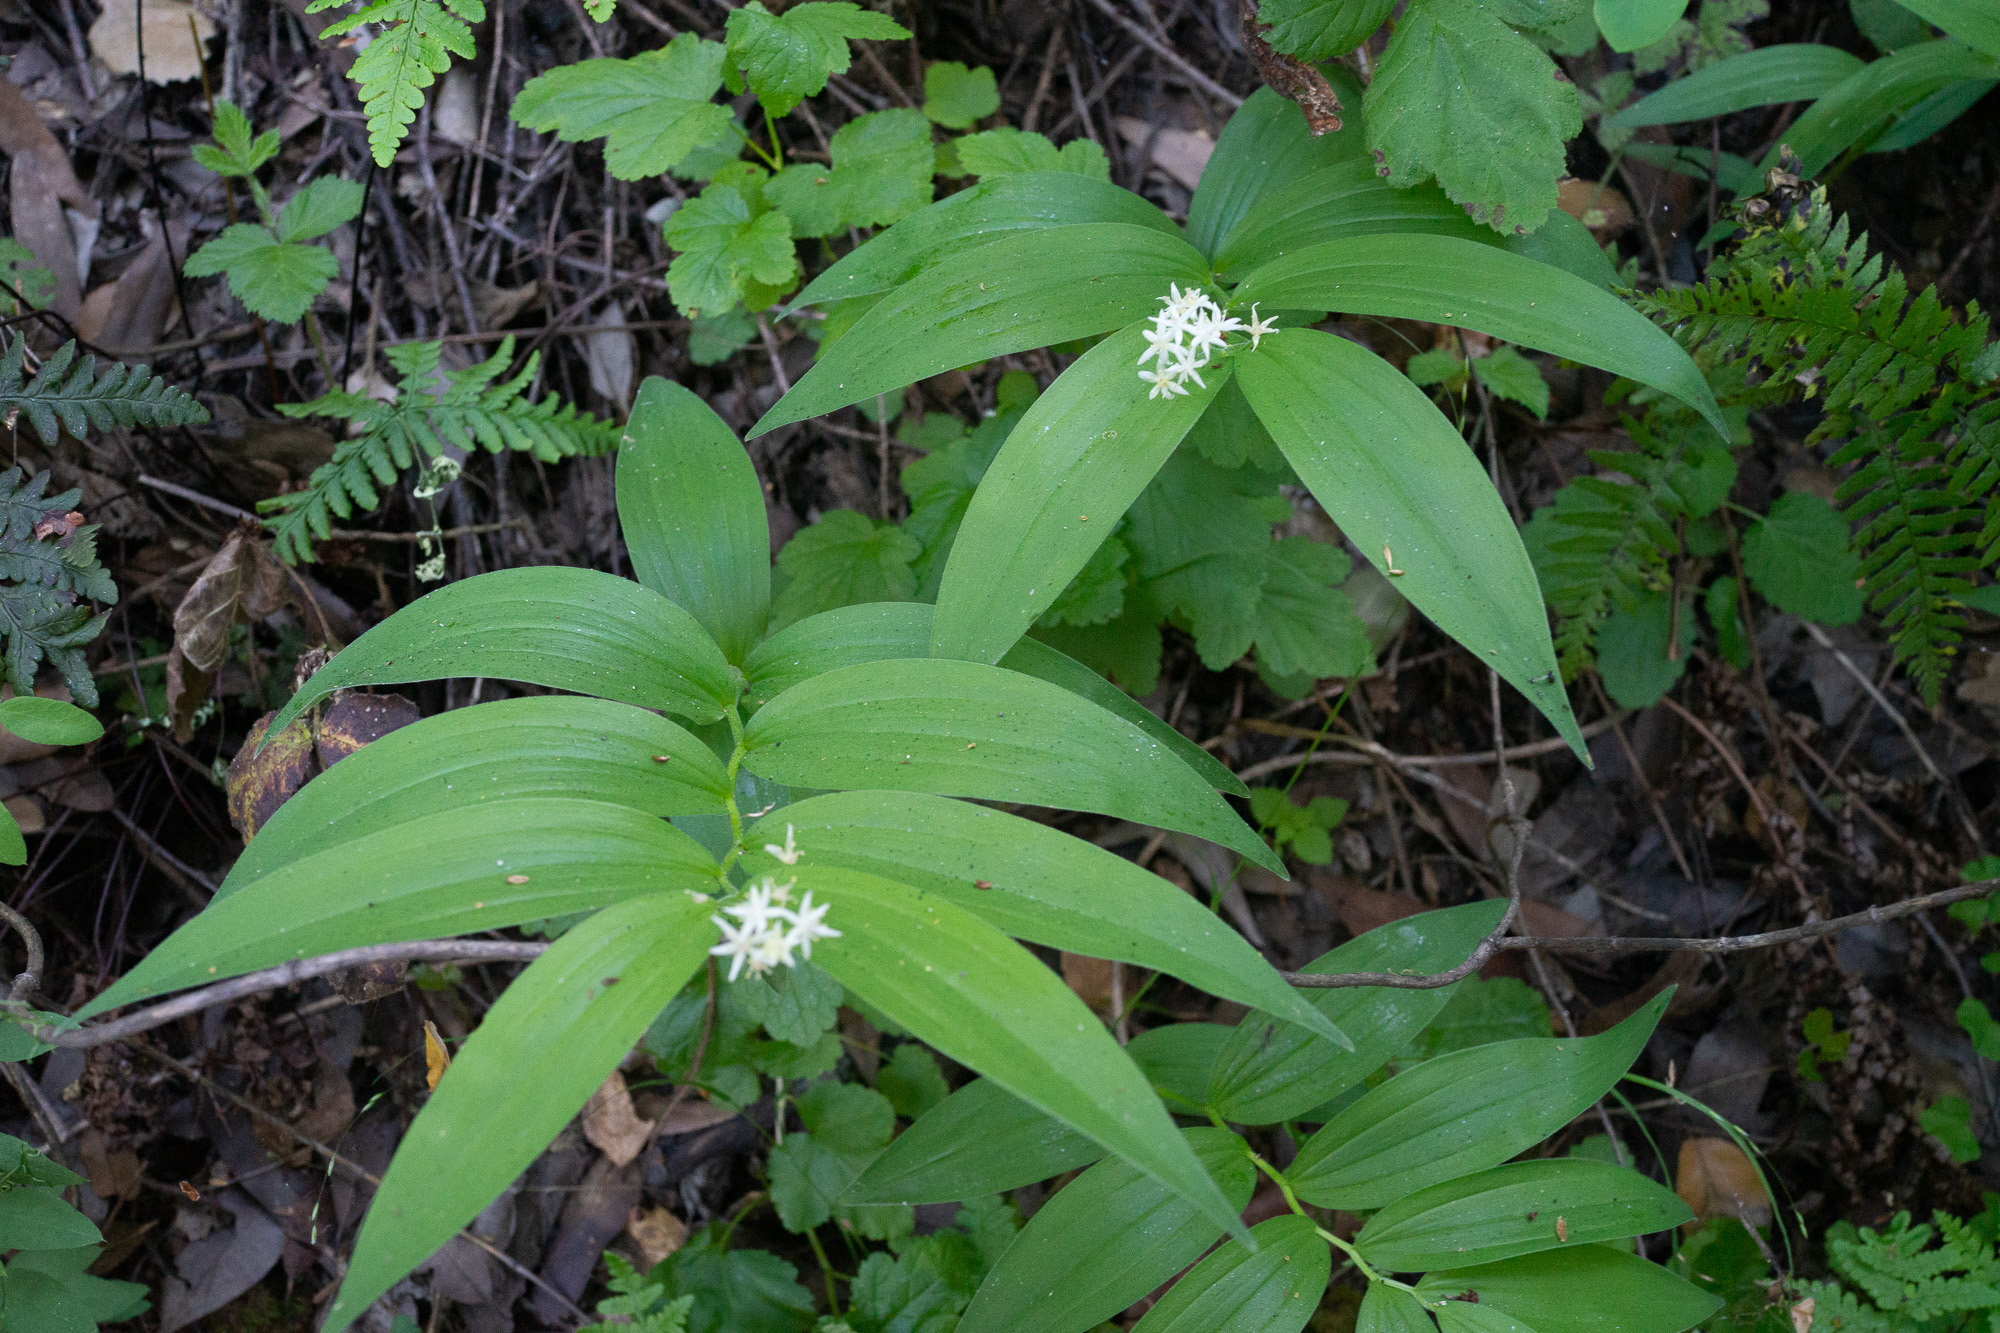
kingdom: Plantae
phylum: Tracheophyta
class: Liliopsida
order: Asparagales
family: Asparagaceae
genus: Maianthemum
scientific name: Maianthemum stellatum
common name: Little false solomon's seal
